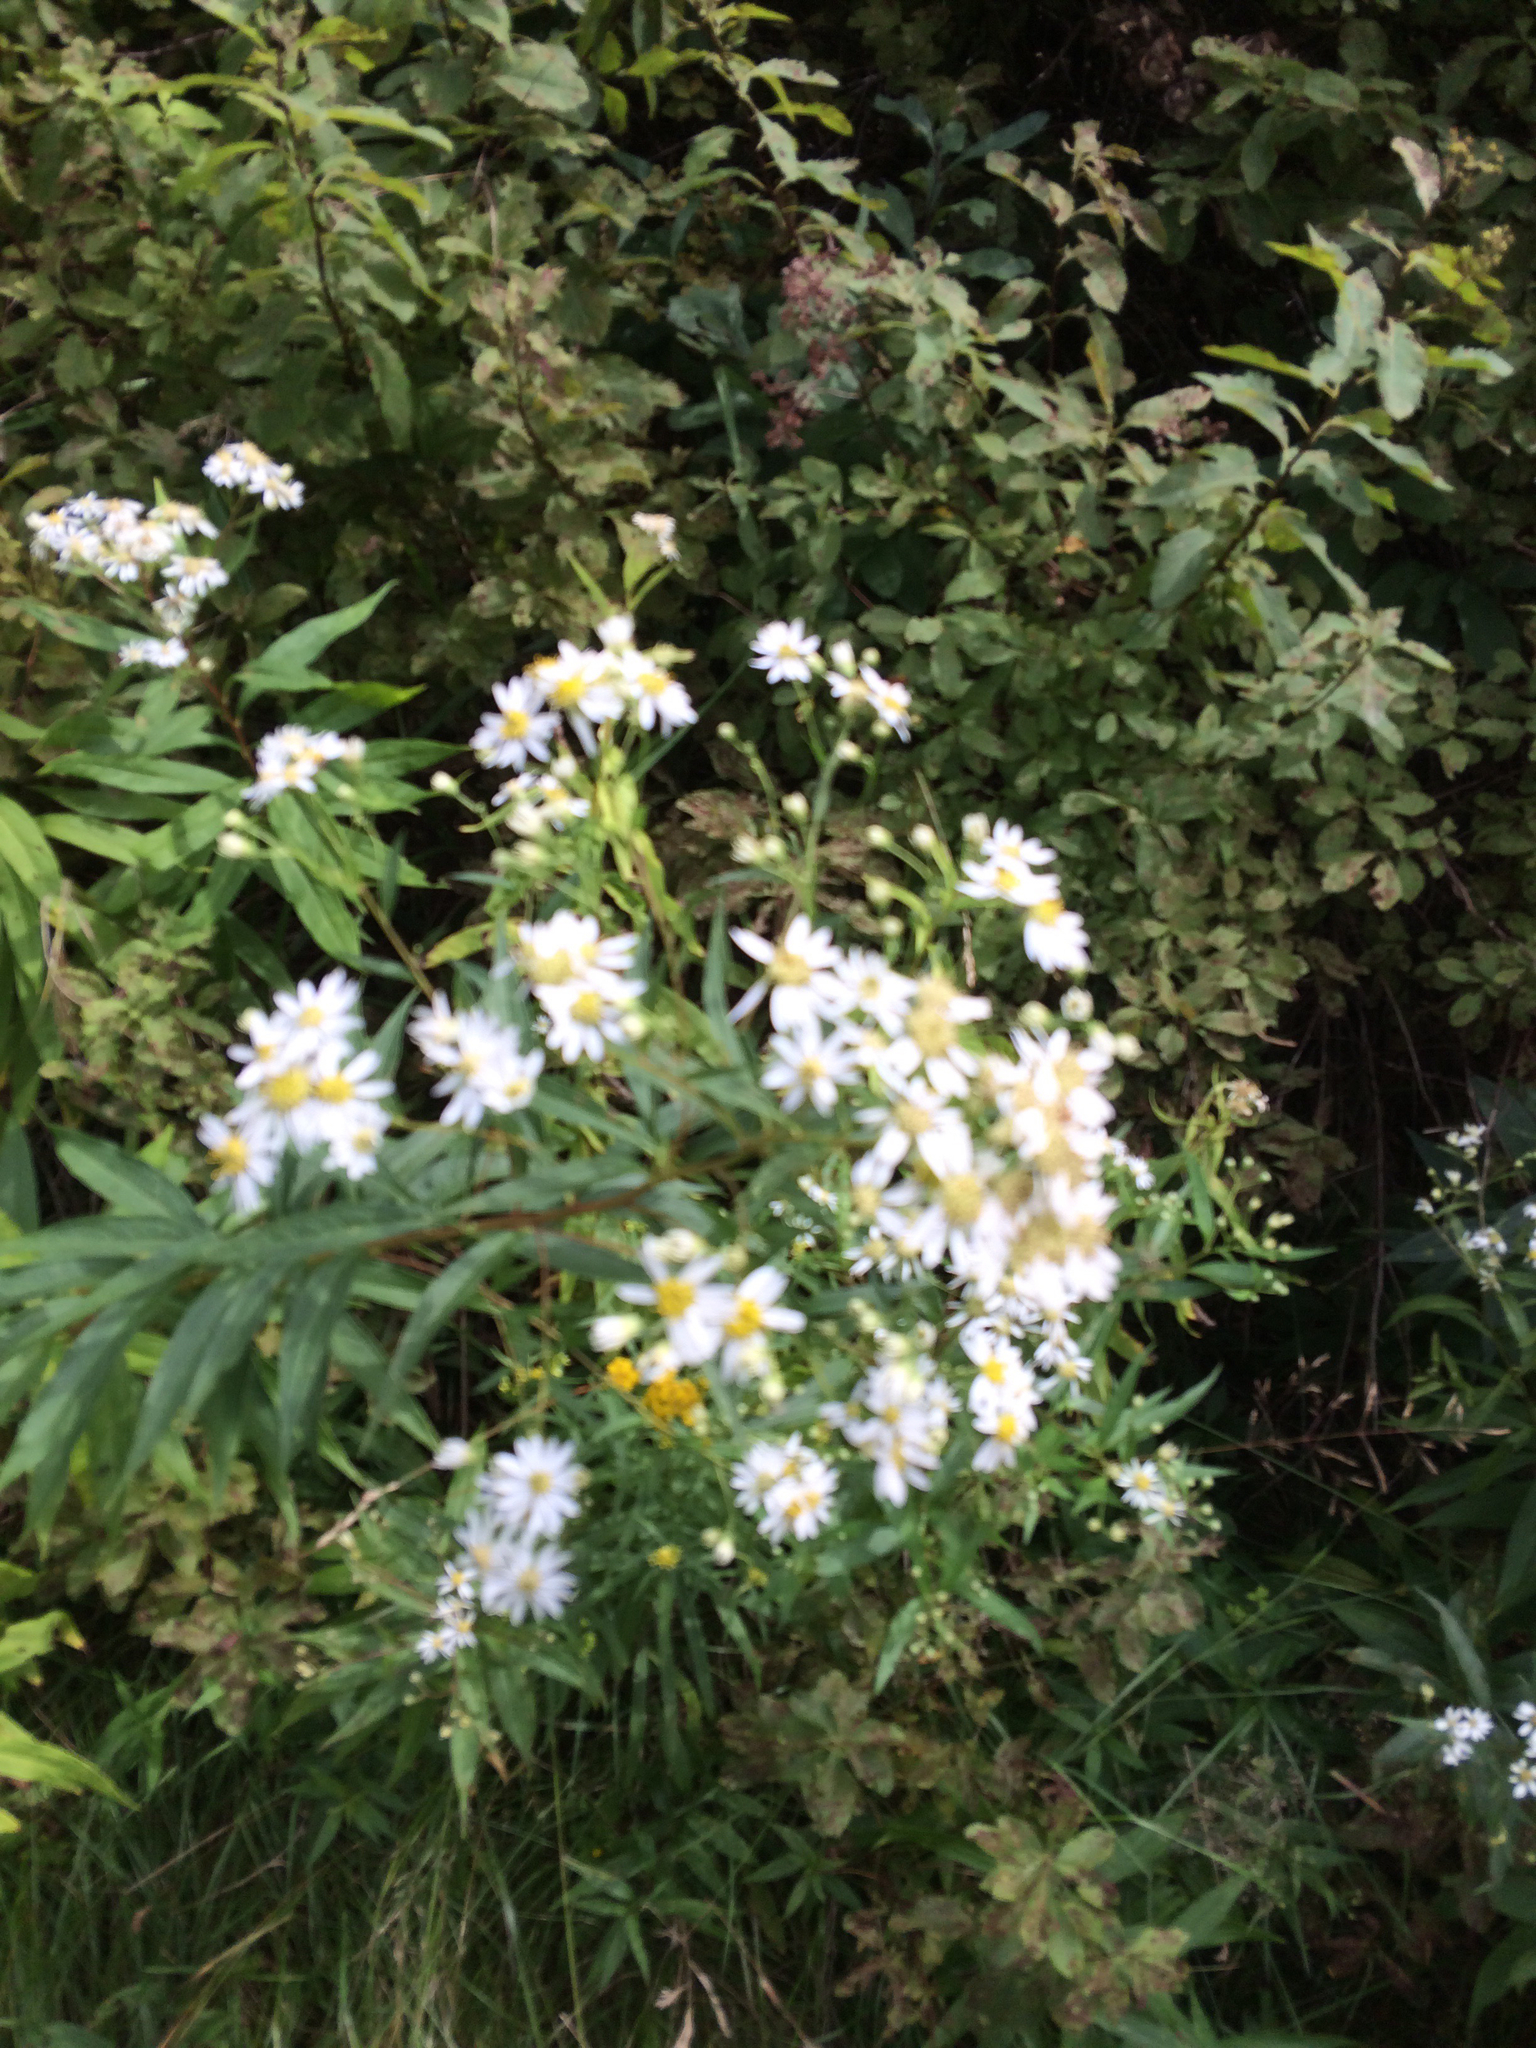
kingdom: Plantae
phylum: Tracheophyta
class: Magnoliopsida
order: Asterales
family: Asteraceae
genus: Doellingeria
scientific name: Doellingeria umbellata
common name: Flat-top white aster
